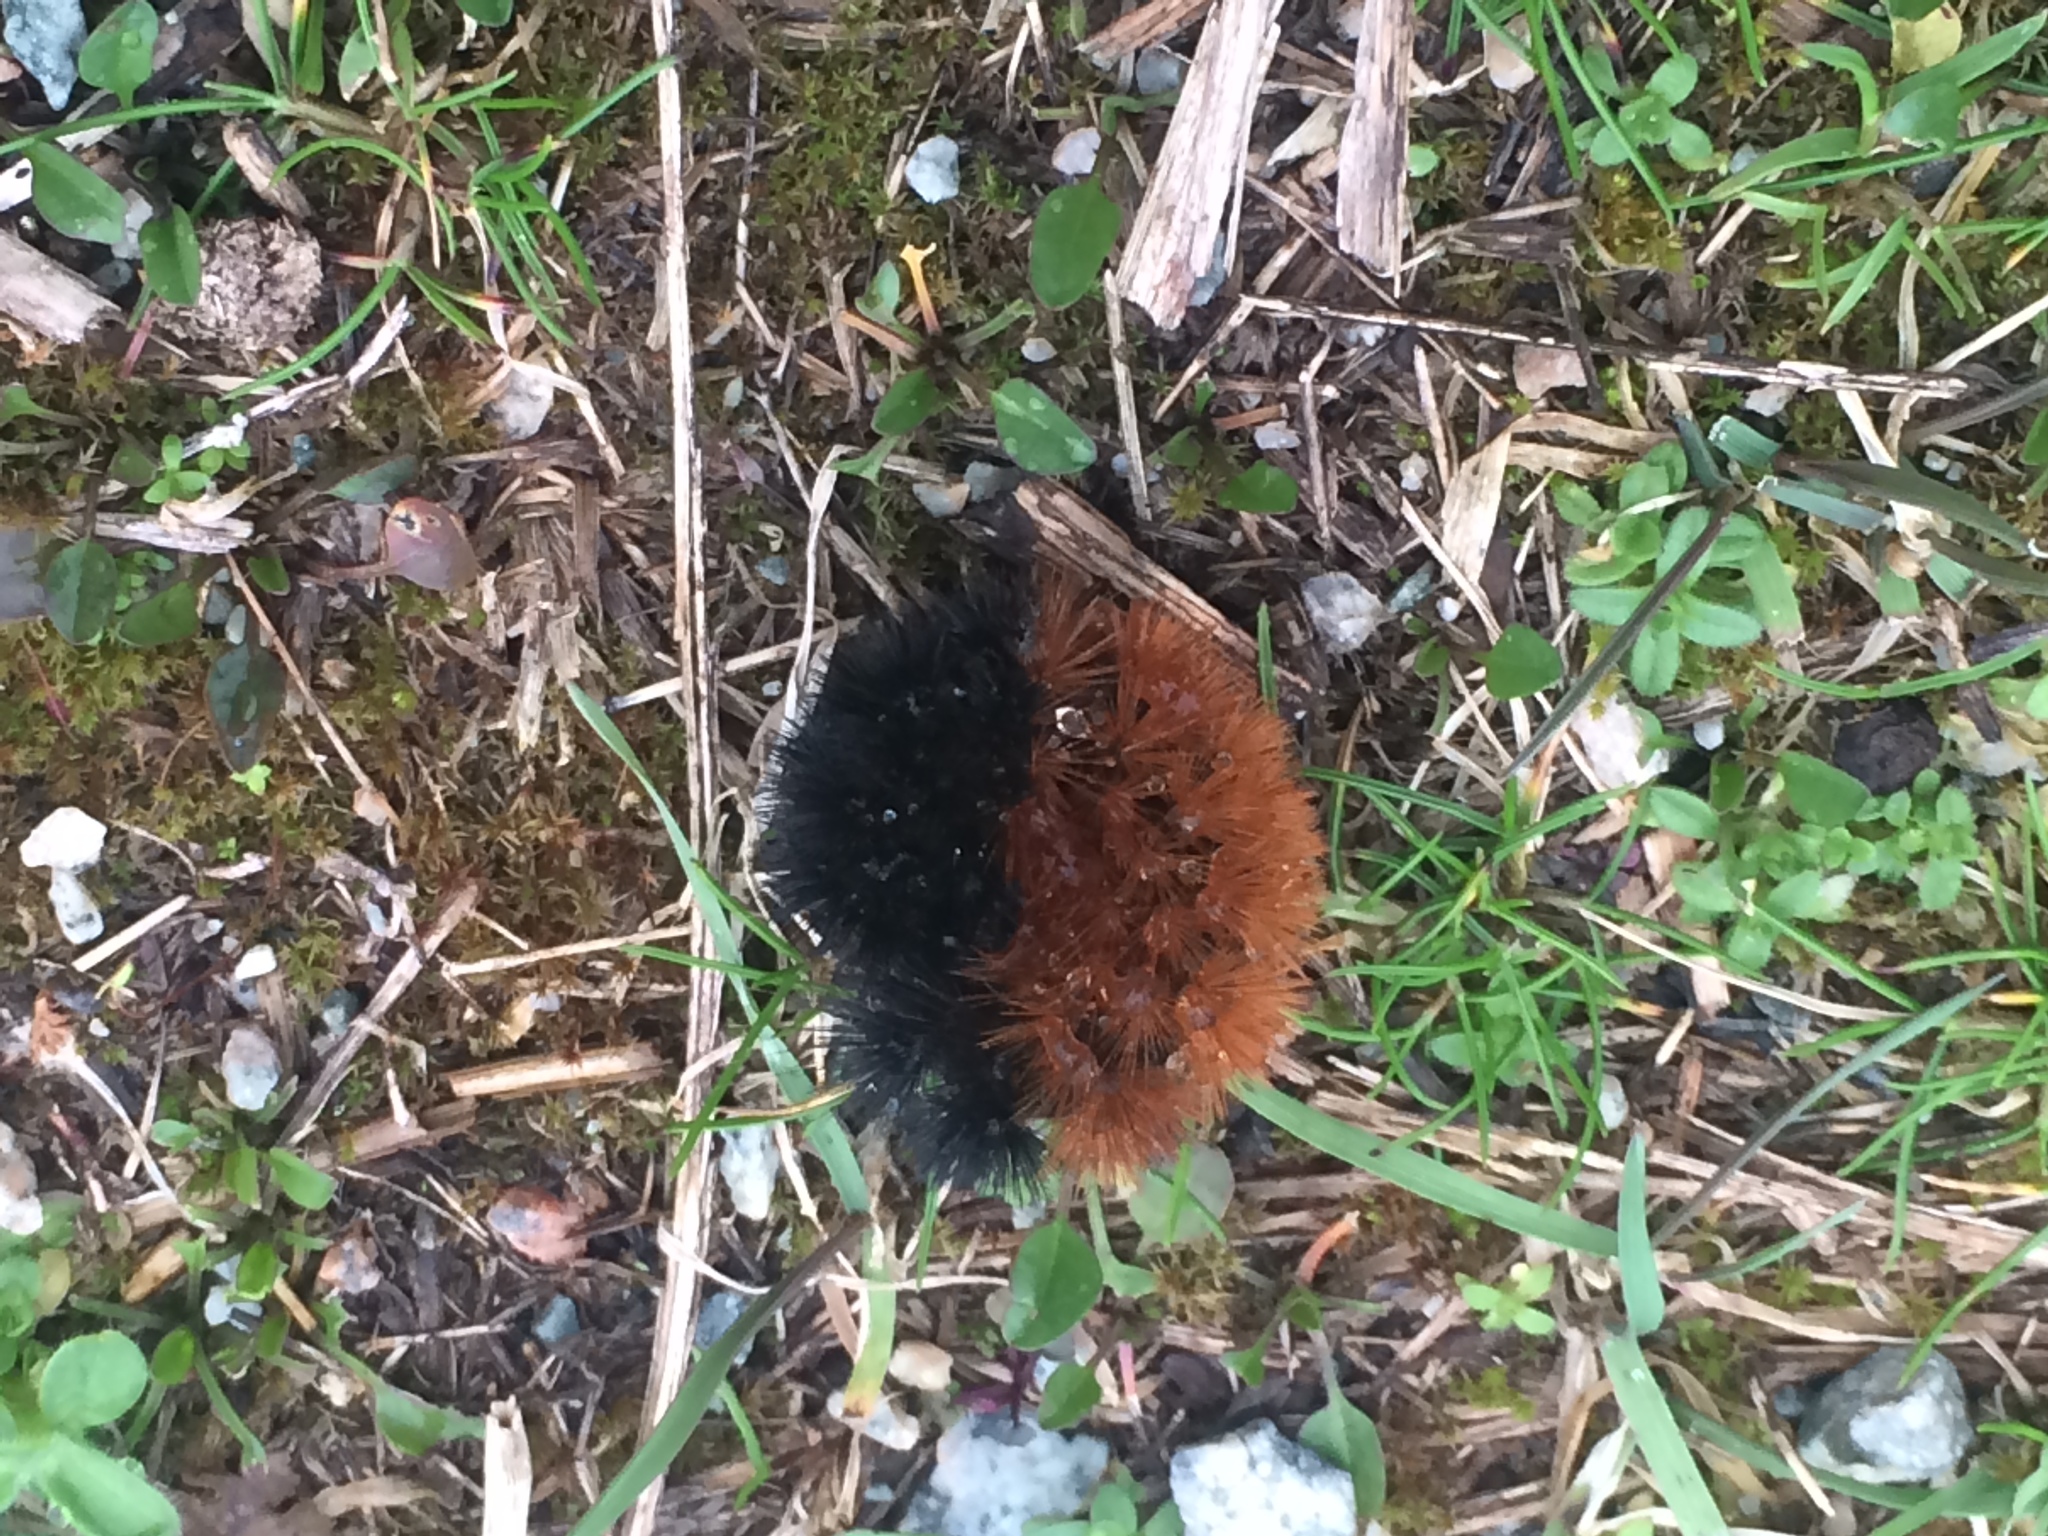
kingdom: Animalia
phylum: Arthropoda
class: Insecta
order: Lepidoptera
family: Erebidae
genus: Pyrrharctia
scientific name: Pyrrharctia isabella
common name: Isabella tiger moth
